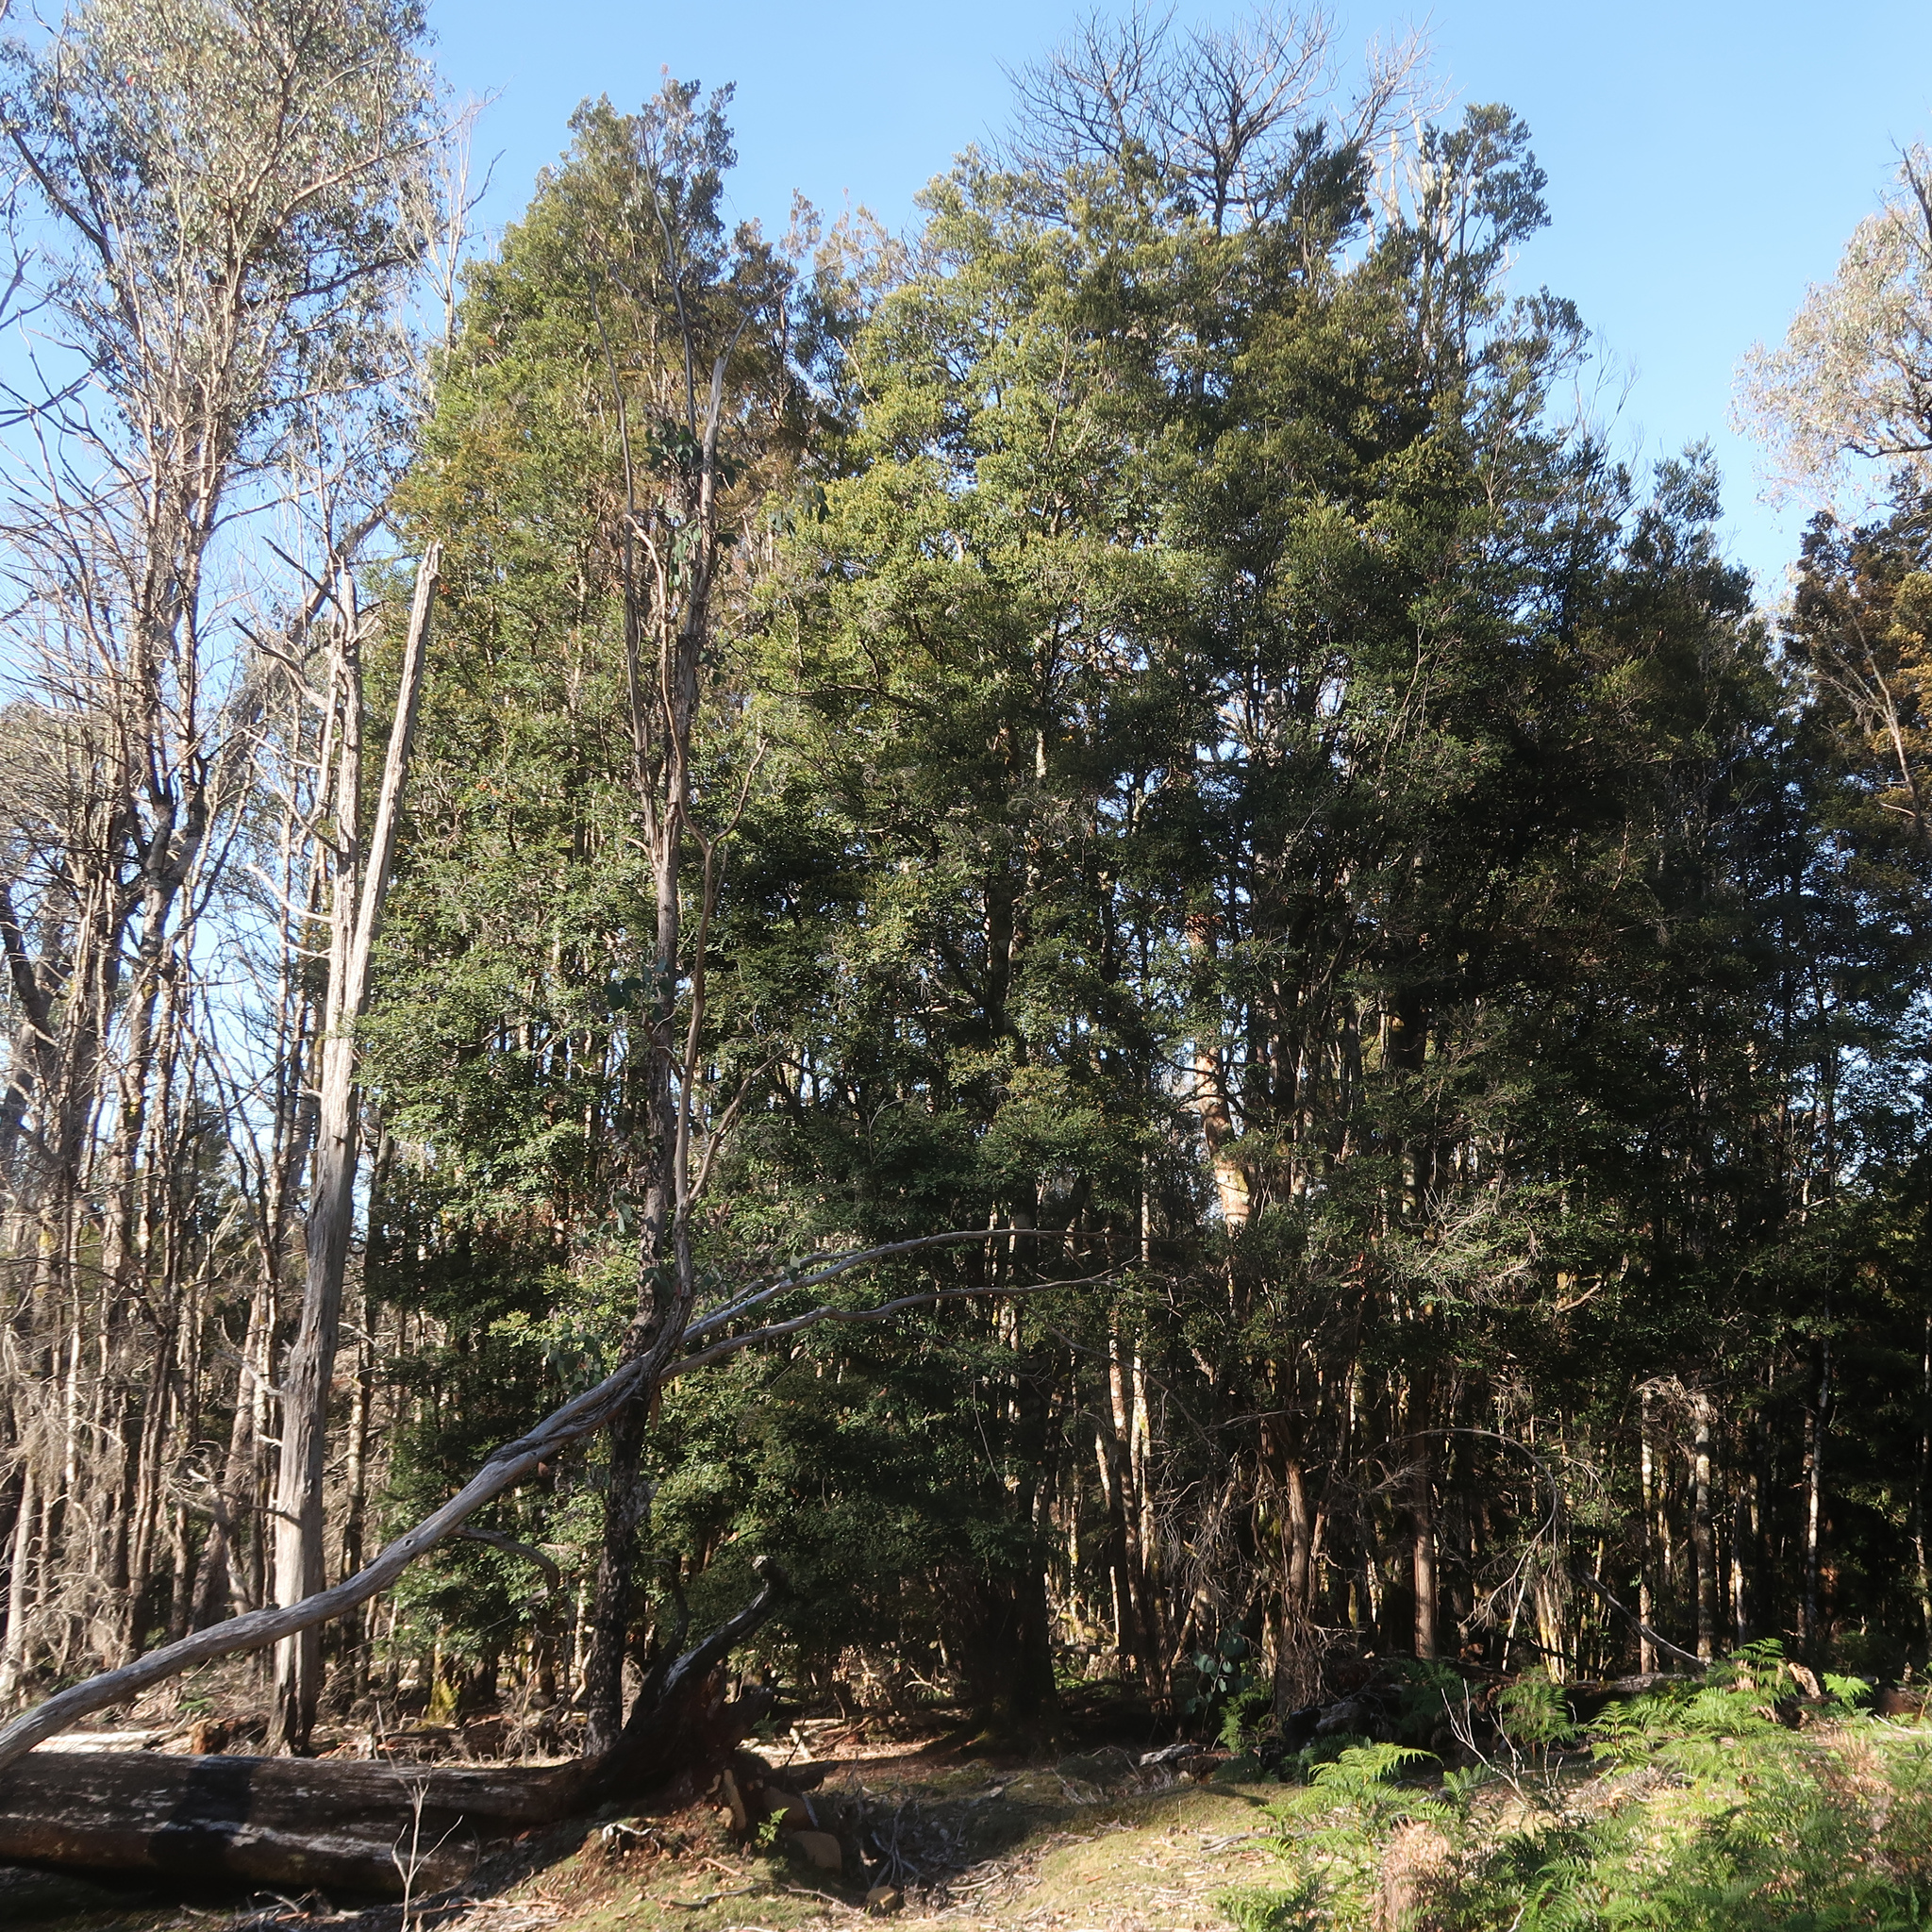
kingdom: Plantae
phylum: Tracheophyta
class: Magnoliopsida
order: Fagales
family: Nothofagaceae
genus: Nothofagus
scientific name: Nothofagus cunninghamii
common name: Myrtle beech
